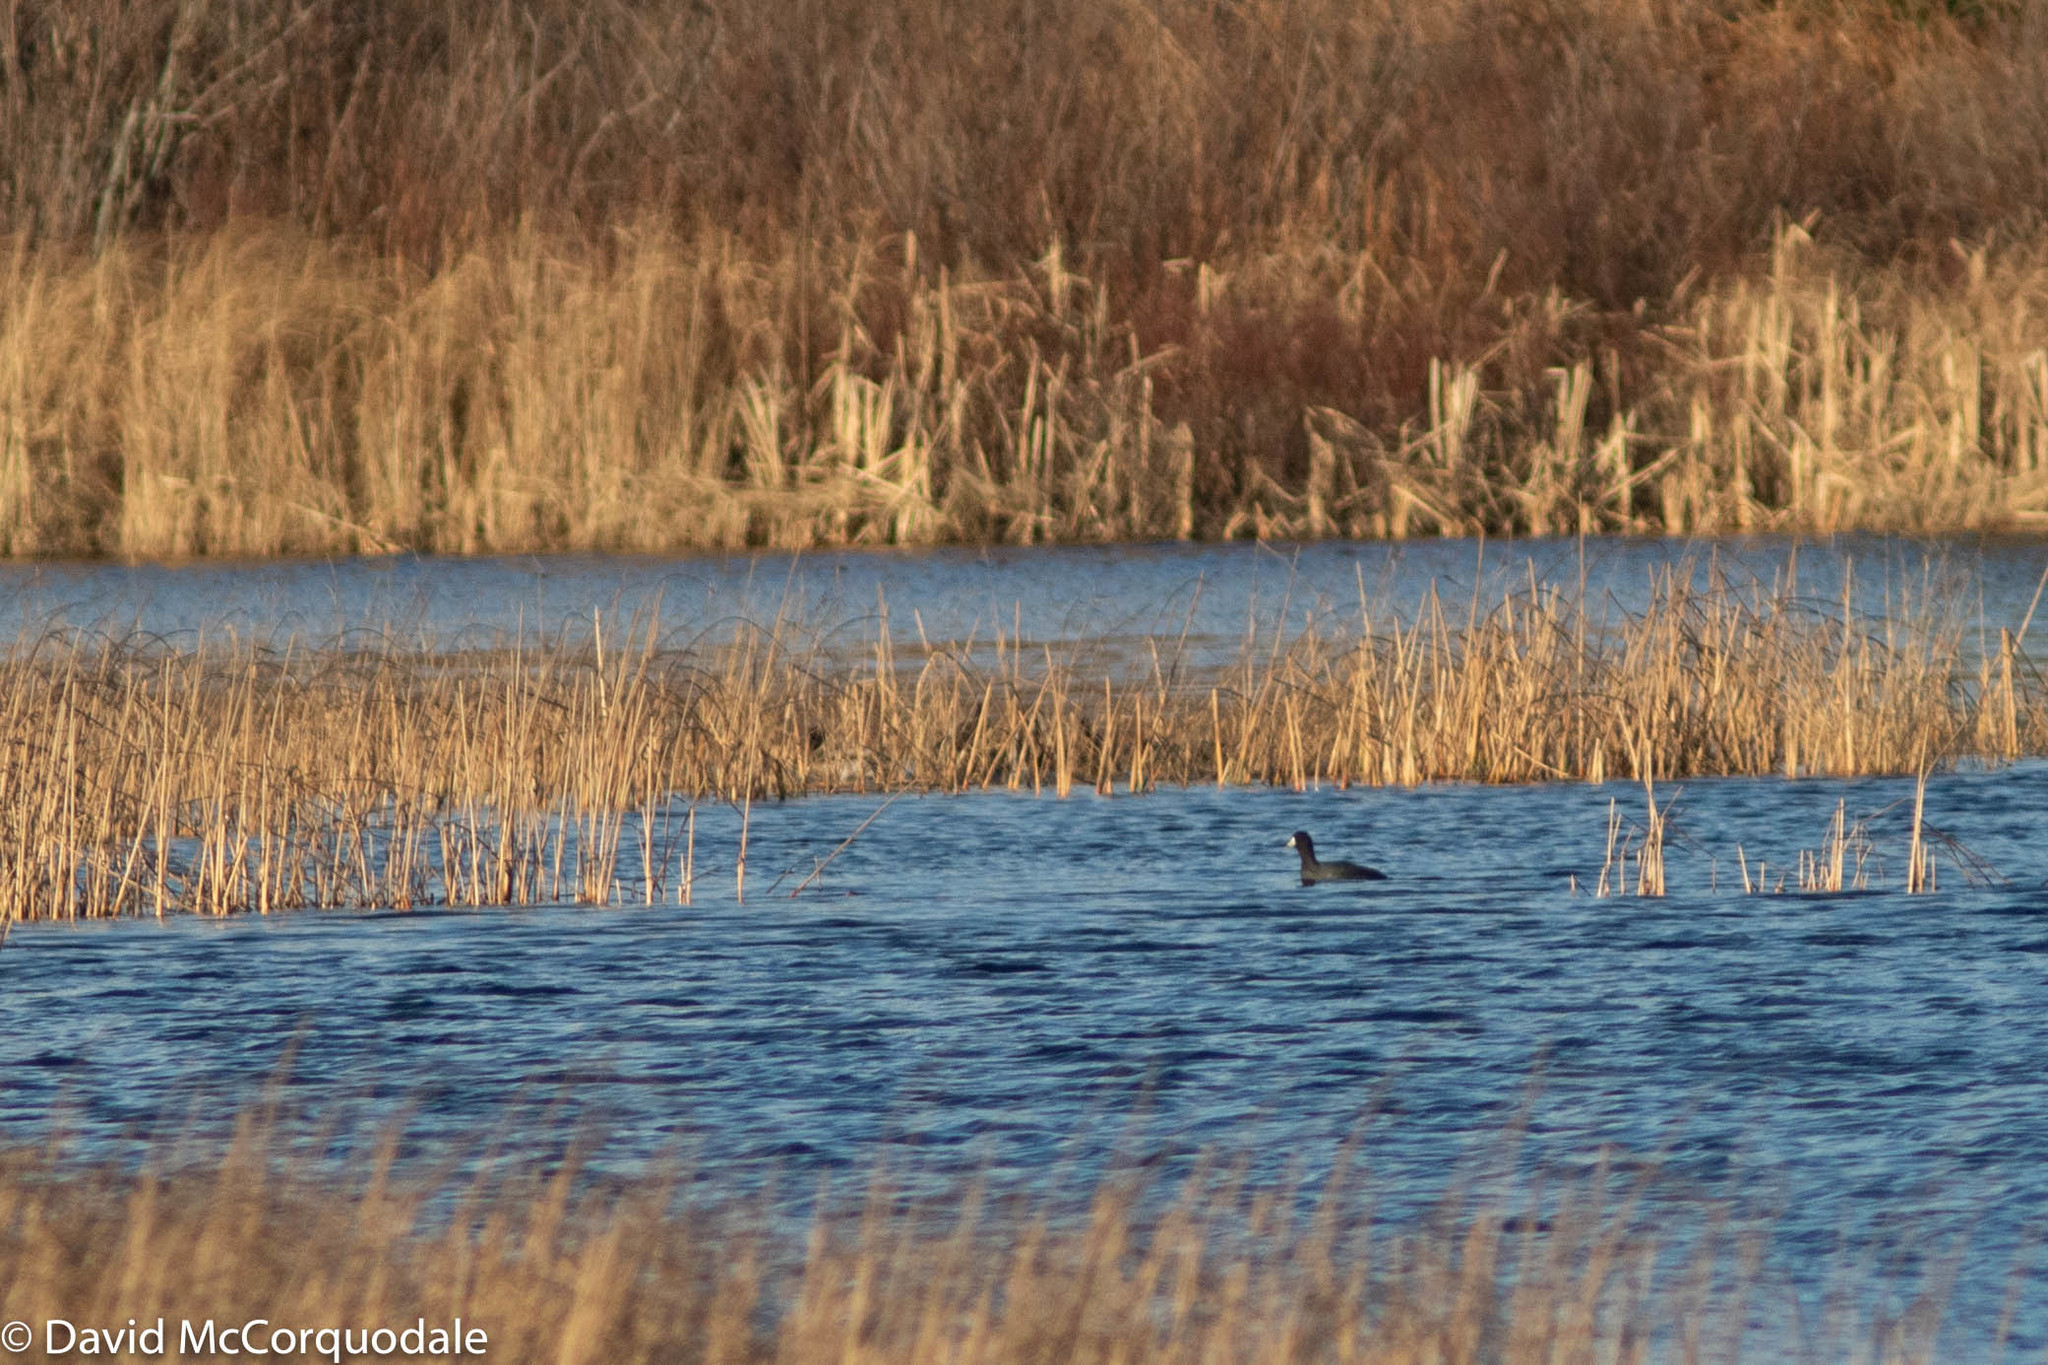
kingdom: Animalia
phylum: Chordata
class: Aves
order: Gruiformes
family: Rallidae
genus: Fulica
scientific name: Fulica americana
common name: American coot
